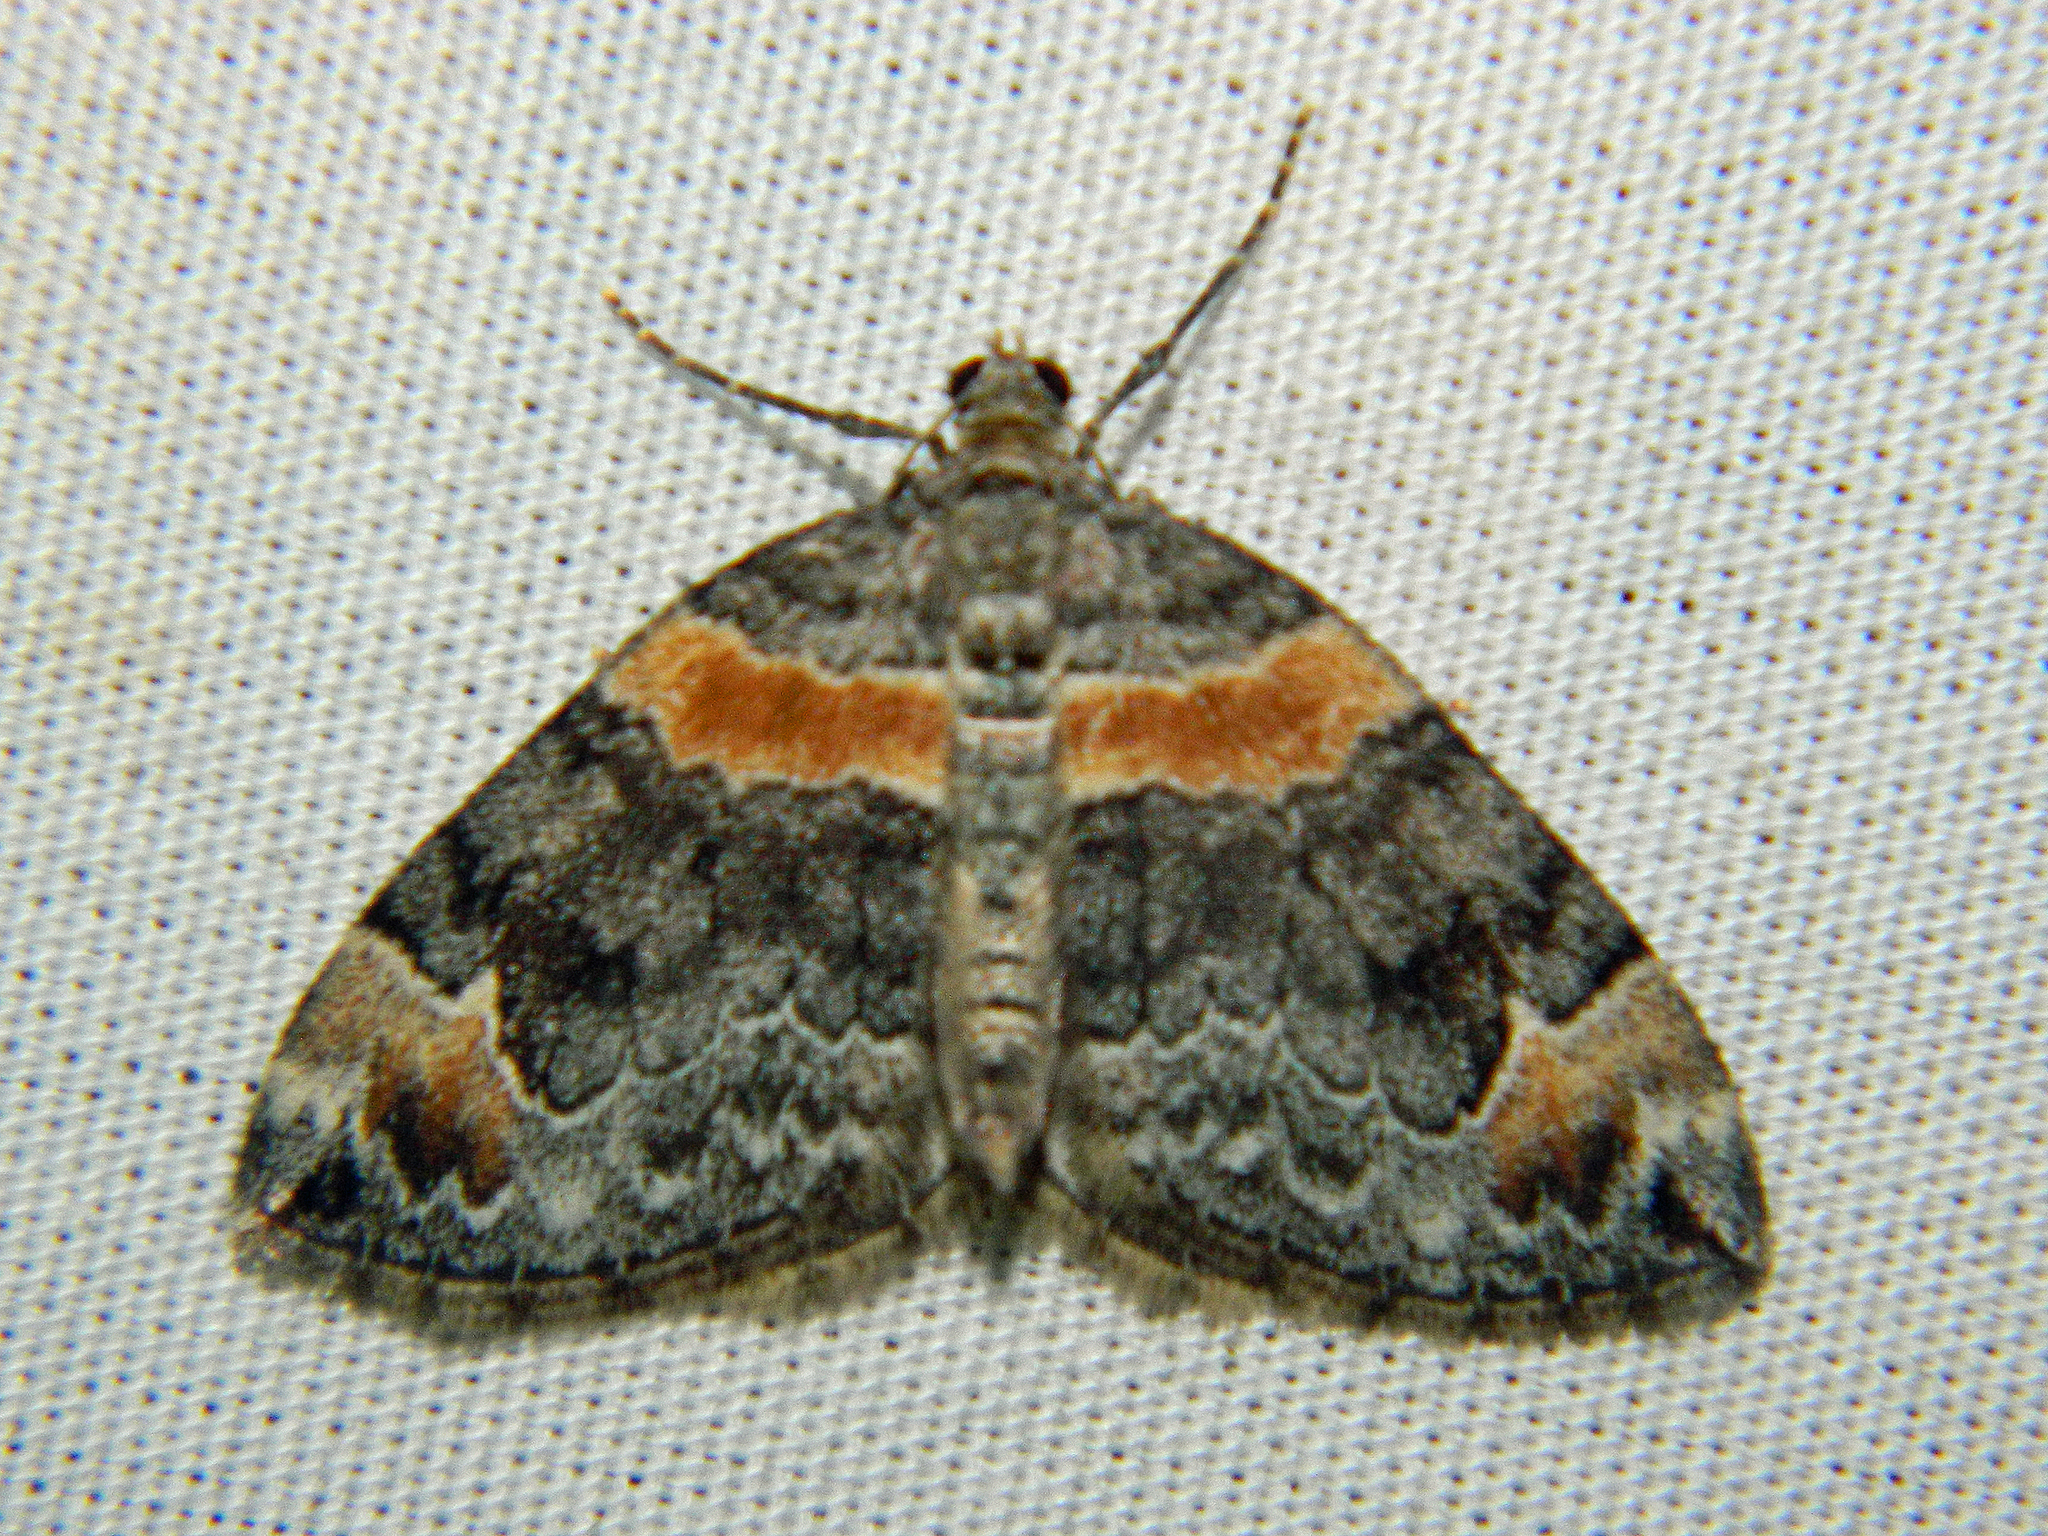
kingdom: Animalia
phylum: Arthropoda
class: Insecta
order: Lepidoptera
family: Geometridae
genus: Dysstroma
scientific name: Dysstroma hersiliata
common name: Orange-barred carpet
